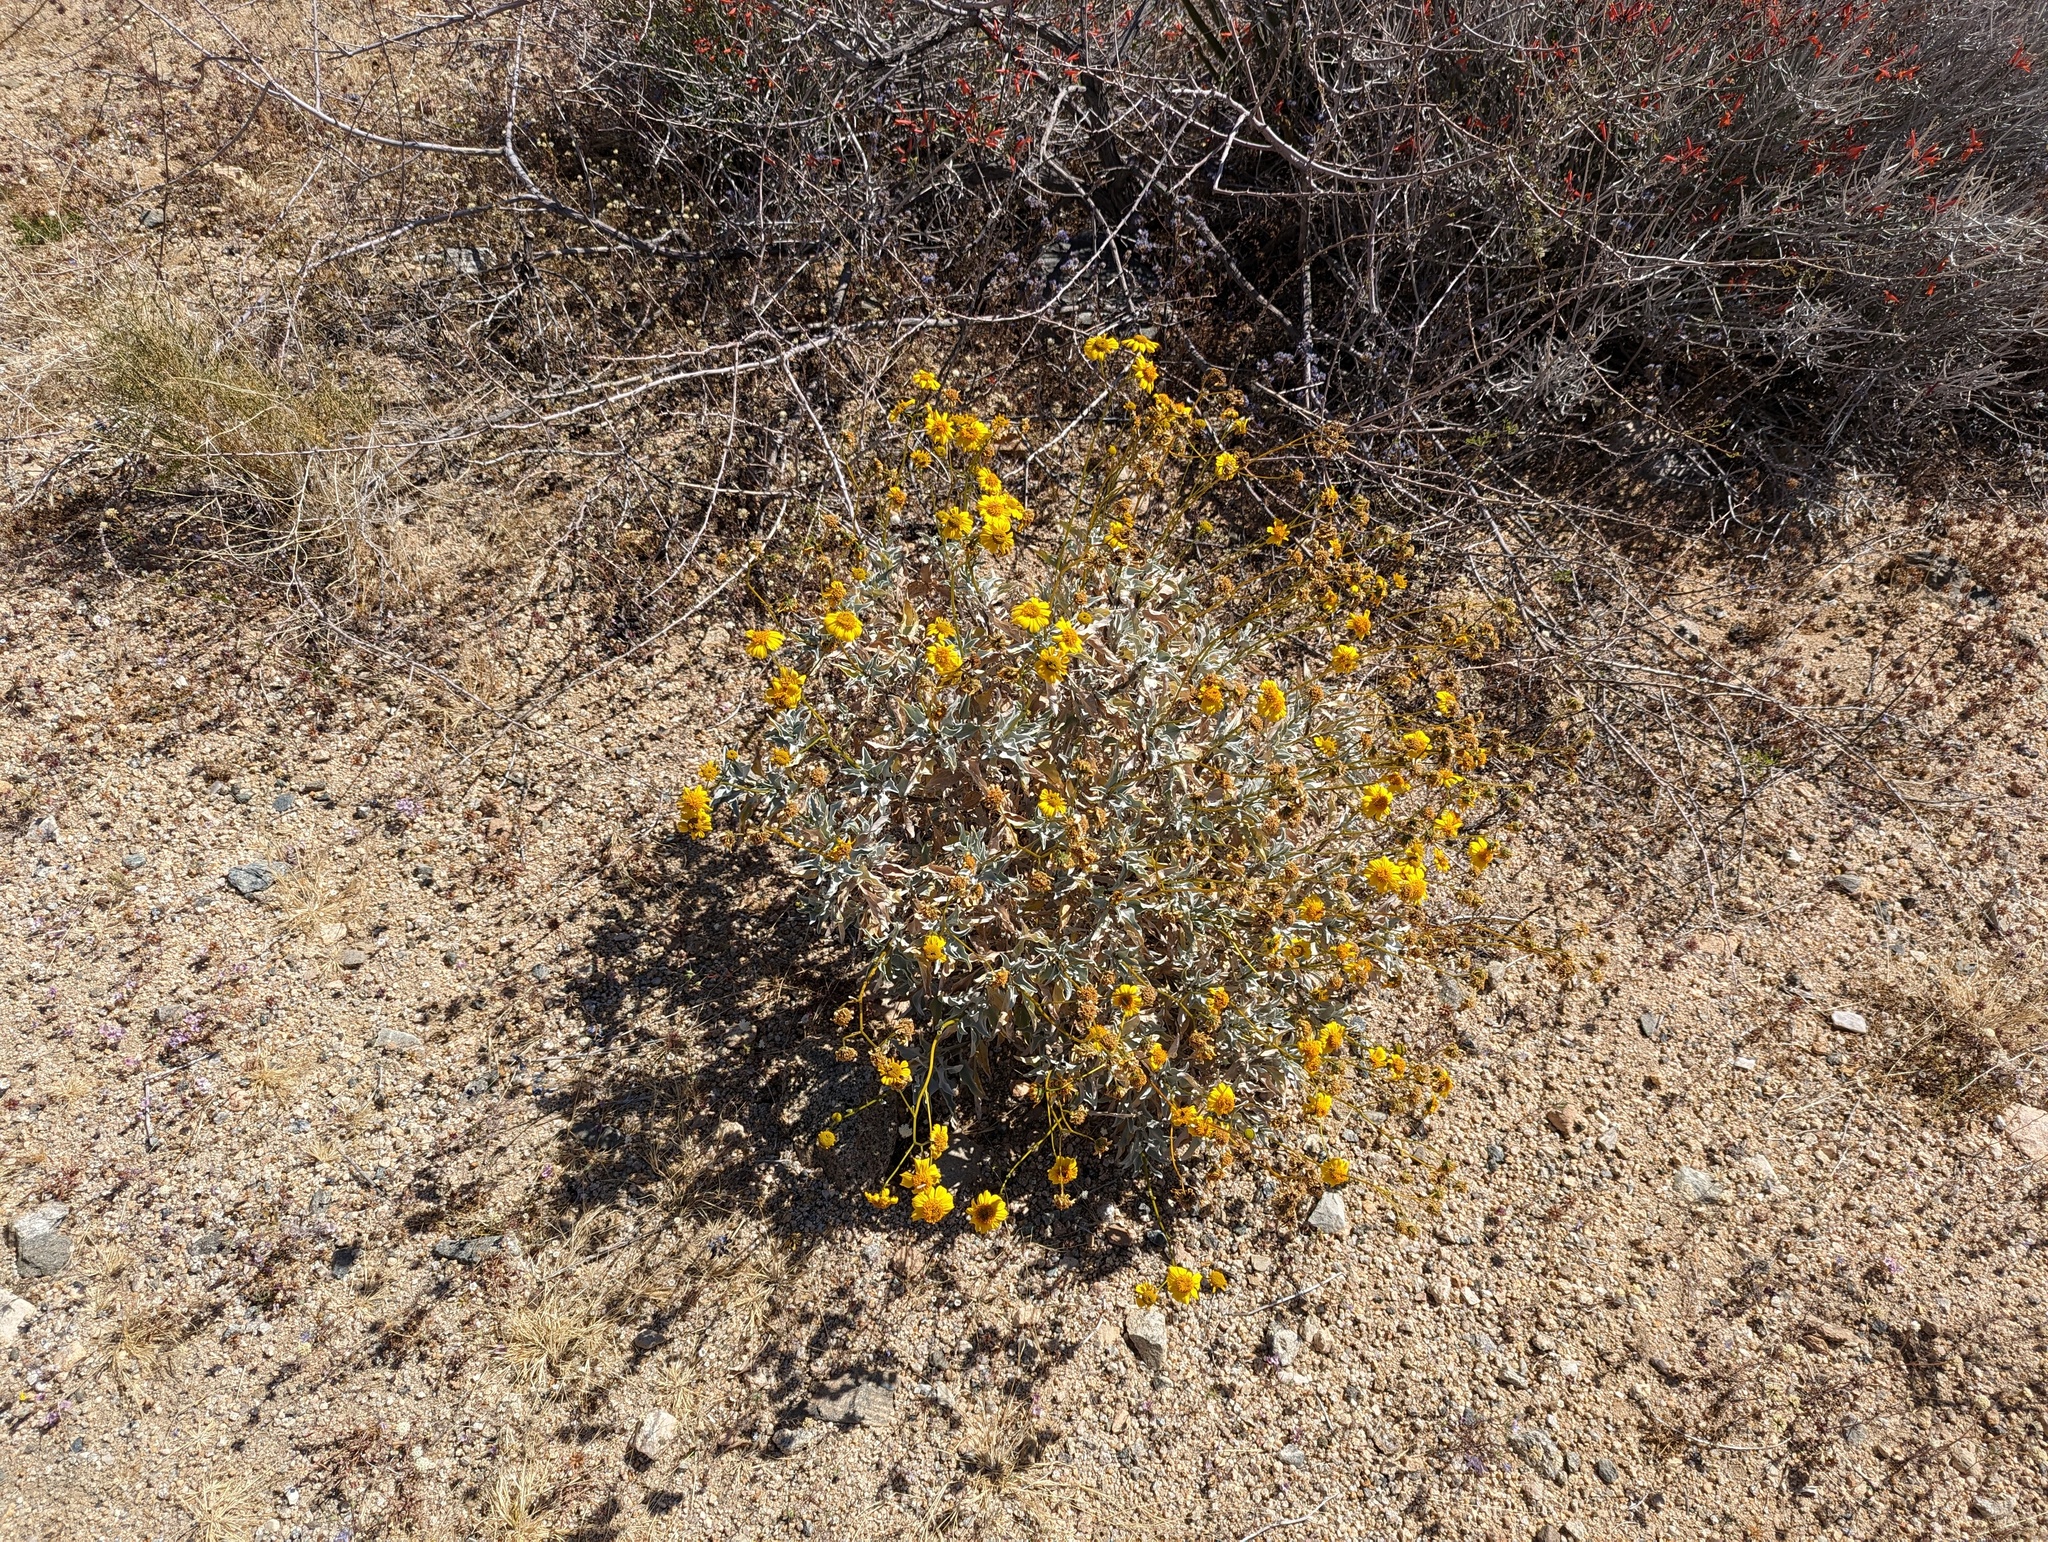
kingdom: Plantae
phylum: Tracheophyta
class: Magnoliopsida
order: Asterales
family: Asteraceae
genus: Encelia
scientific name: Encelia farinosa
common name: Brittlebush
